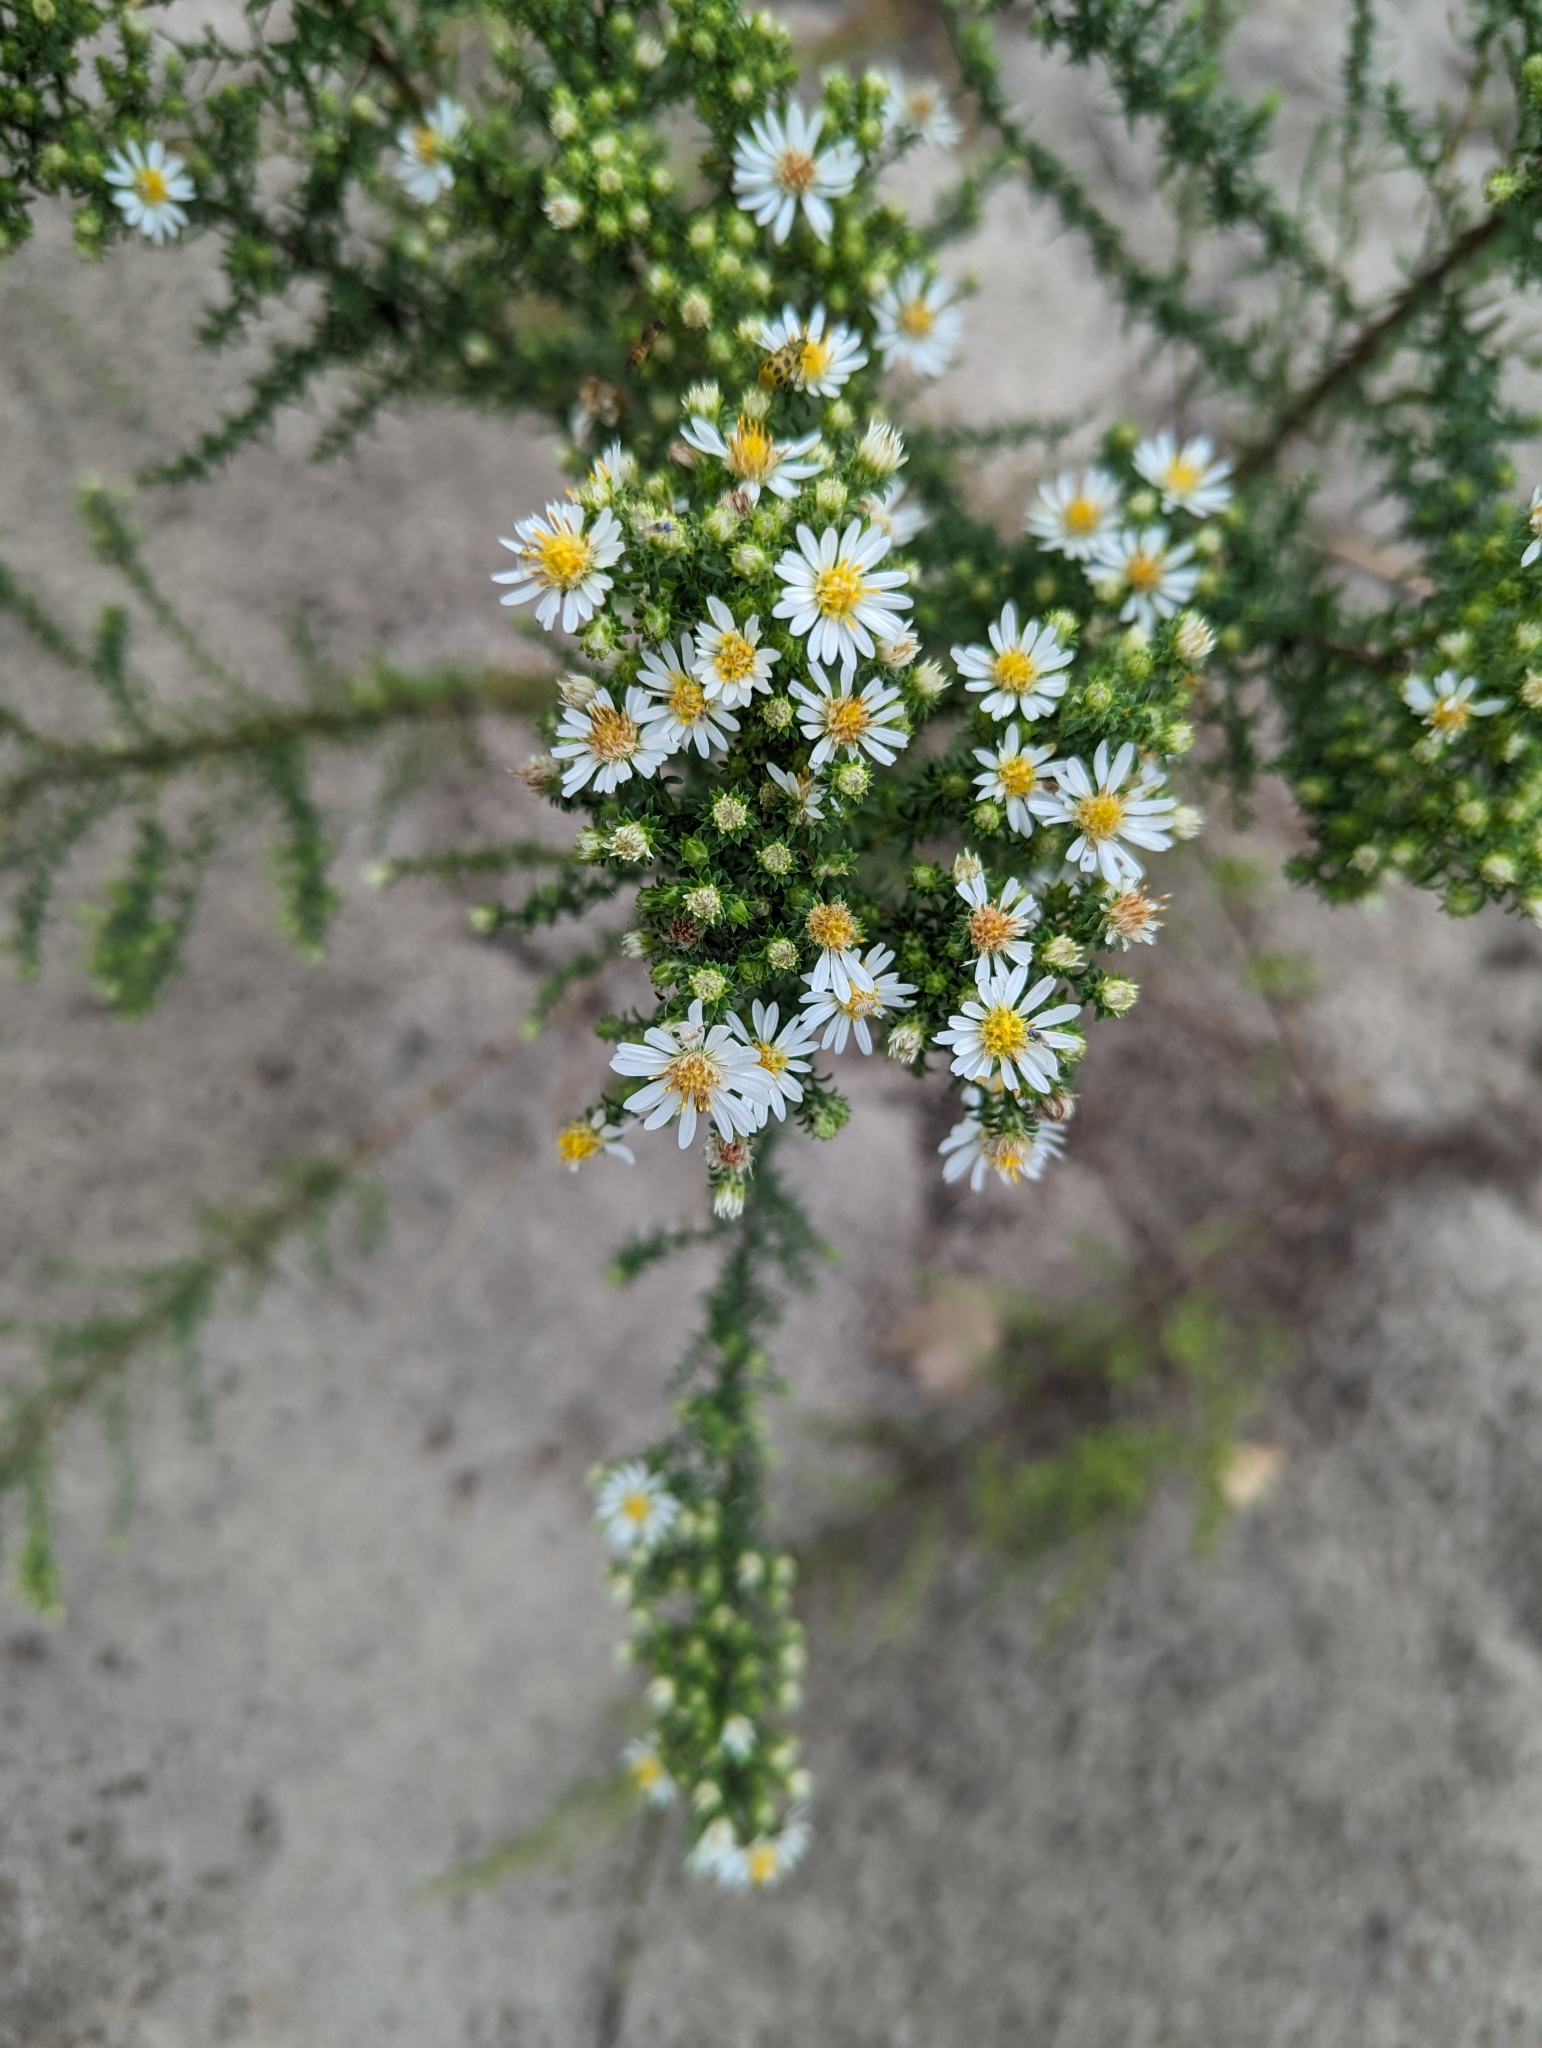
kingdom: Plantae
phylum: Tracheophyta
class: Magnoliopsida
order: Asterales
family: Asteraceae
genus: Symphyotrichum
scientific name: Symphyotrichum ericoides
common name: Heath aster
